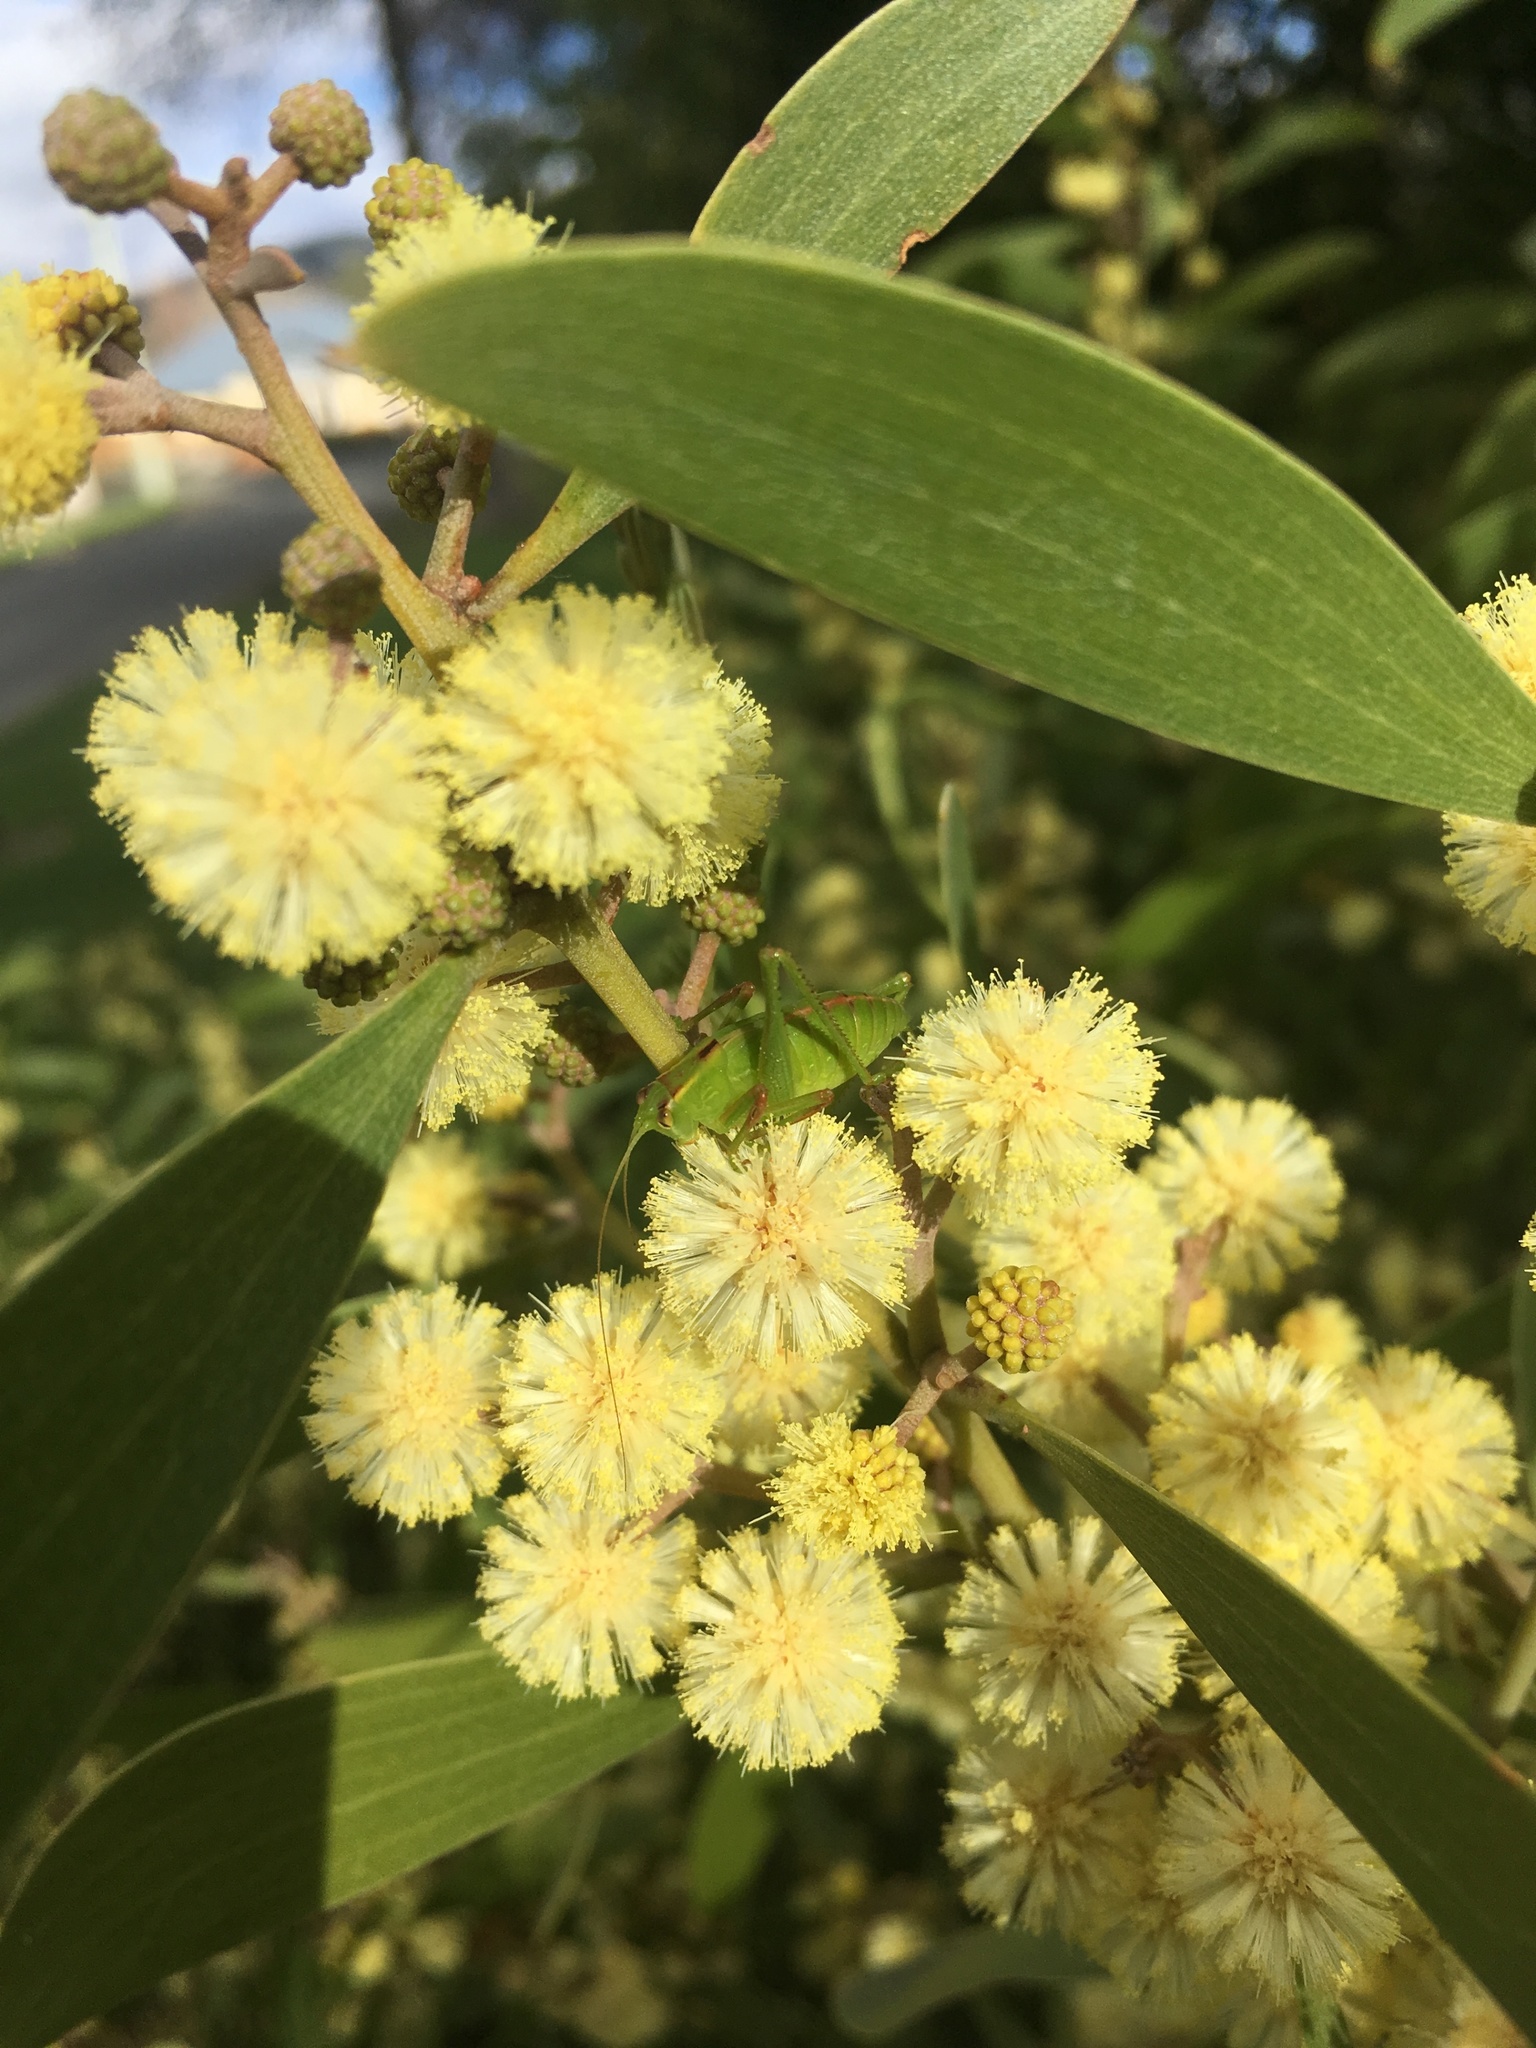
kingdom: Animalia
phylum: Arthropoda
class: Insecta
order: Orthoptera
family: Tettigoniidae
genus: Caedicia
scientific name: Caedicia simplex
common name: Common garden katydid
